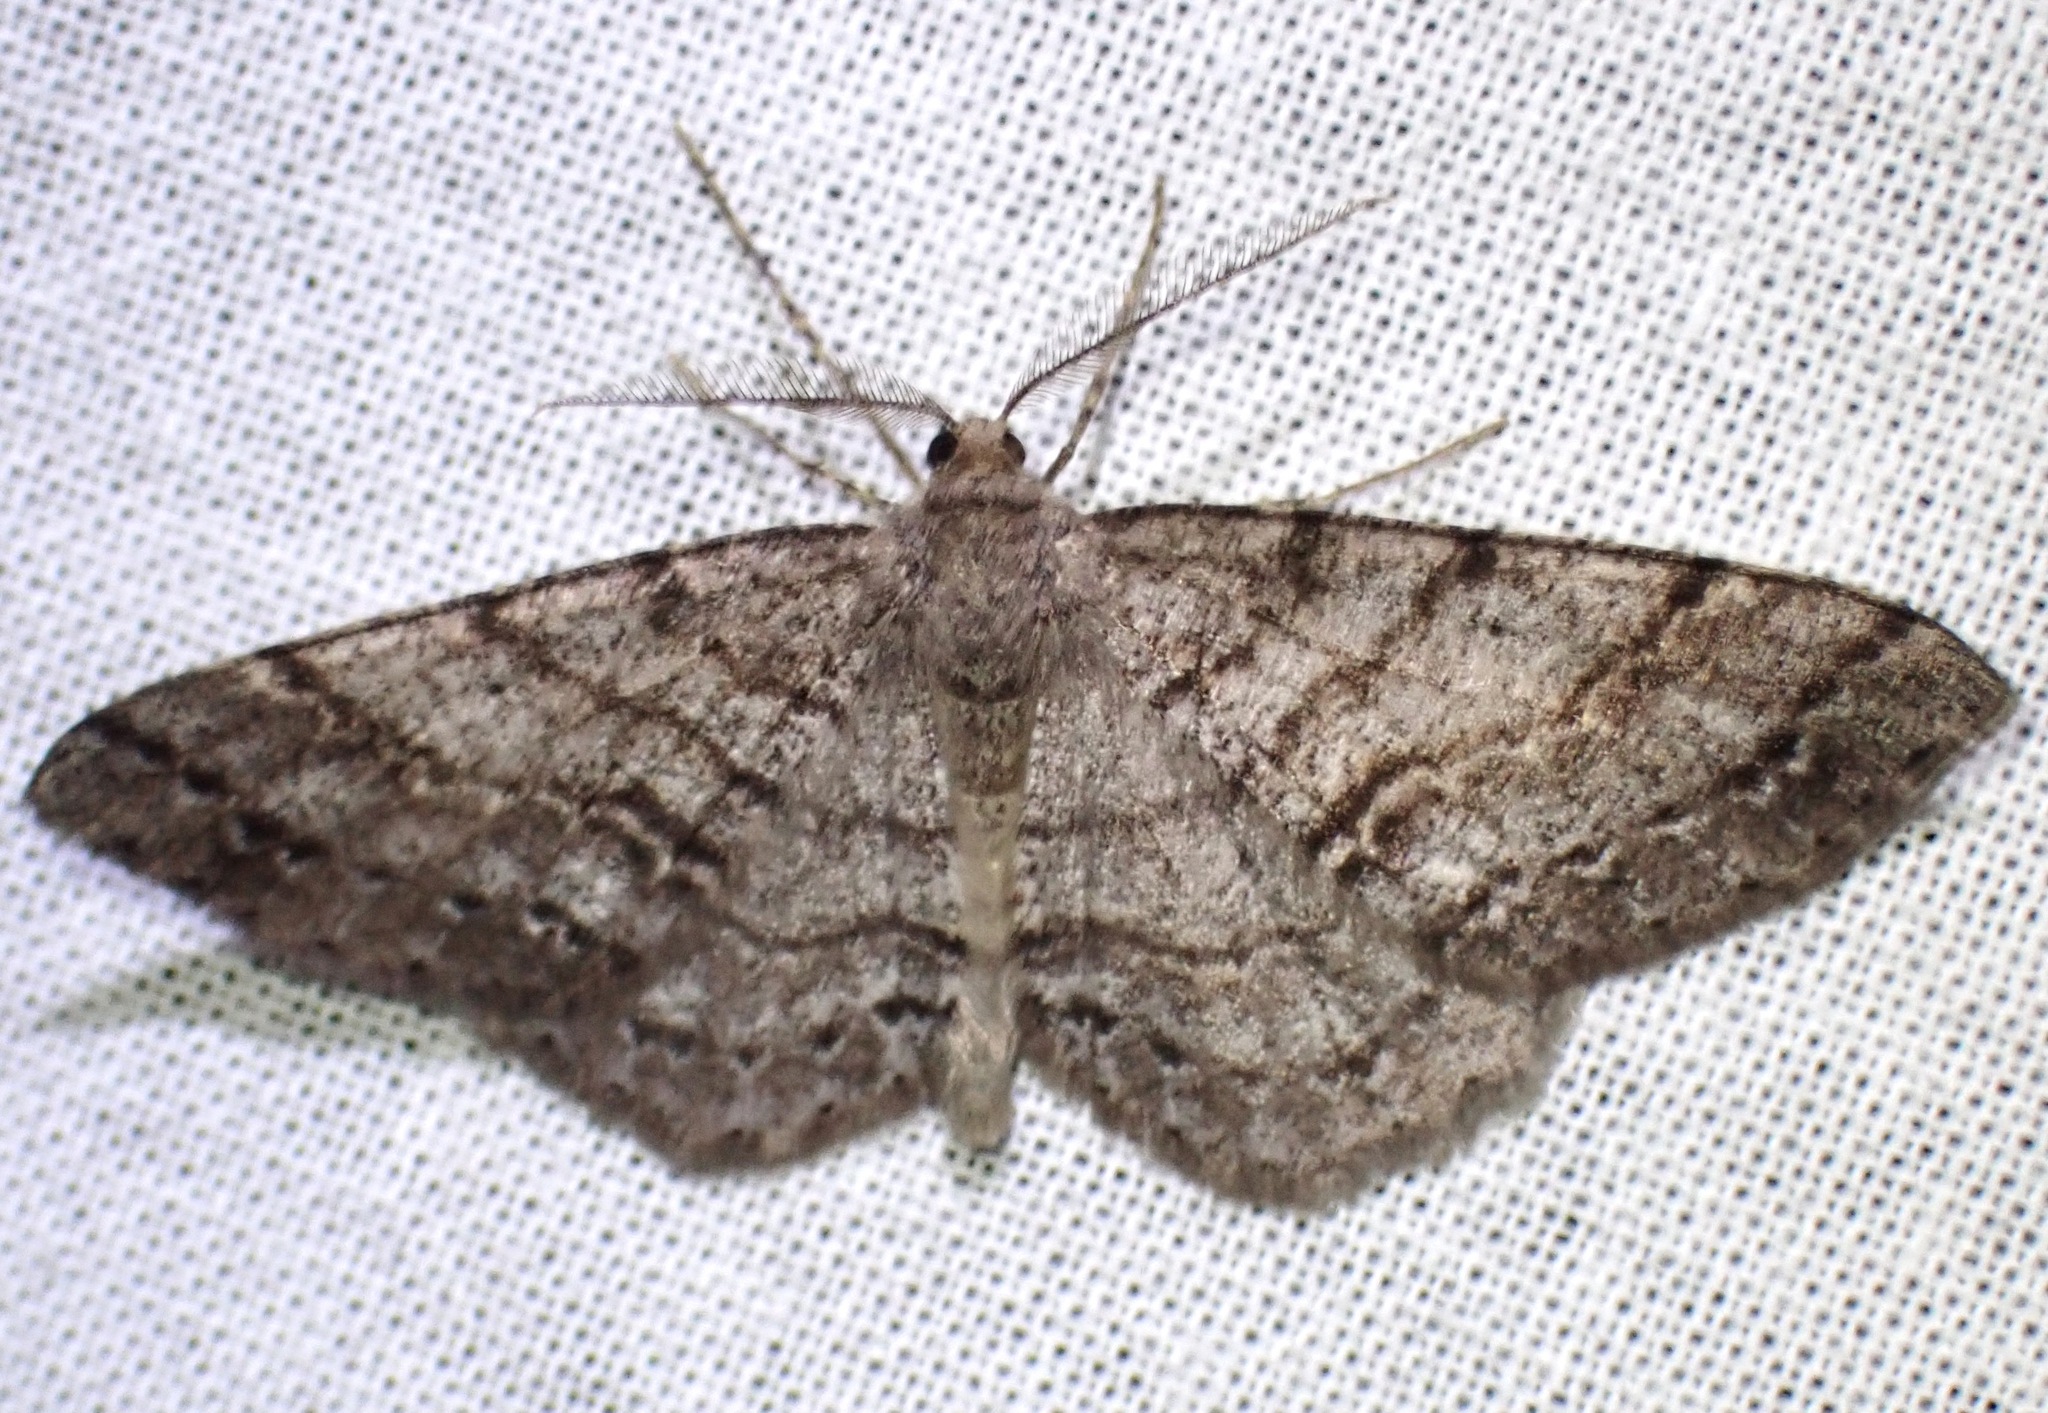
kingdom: Animalia
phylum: Arthropoda
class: Insecta
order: Lepidoptera
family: Geometridae
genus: Melanolophia
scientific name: Melanolophia imitata
